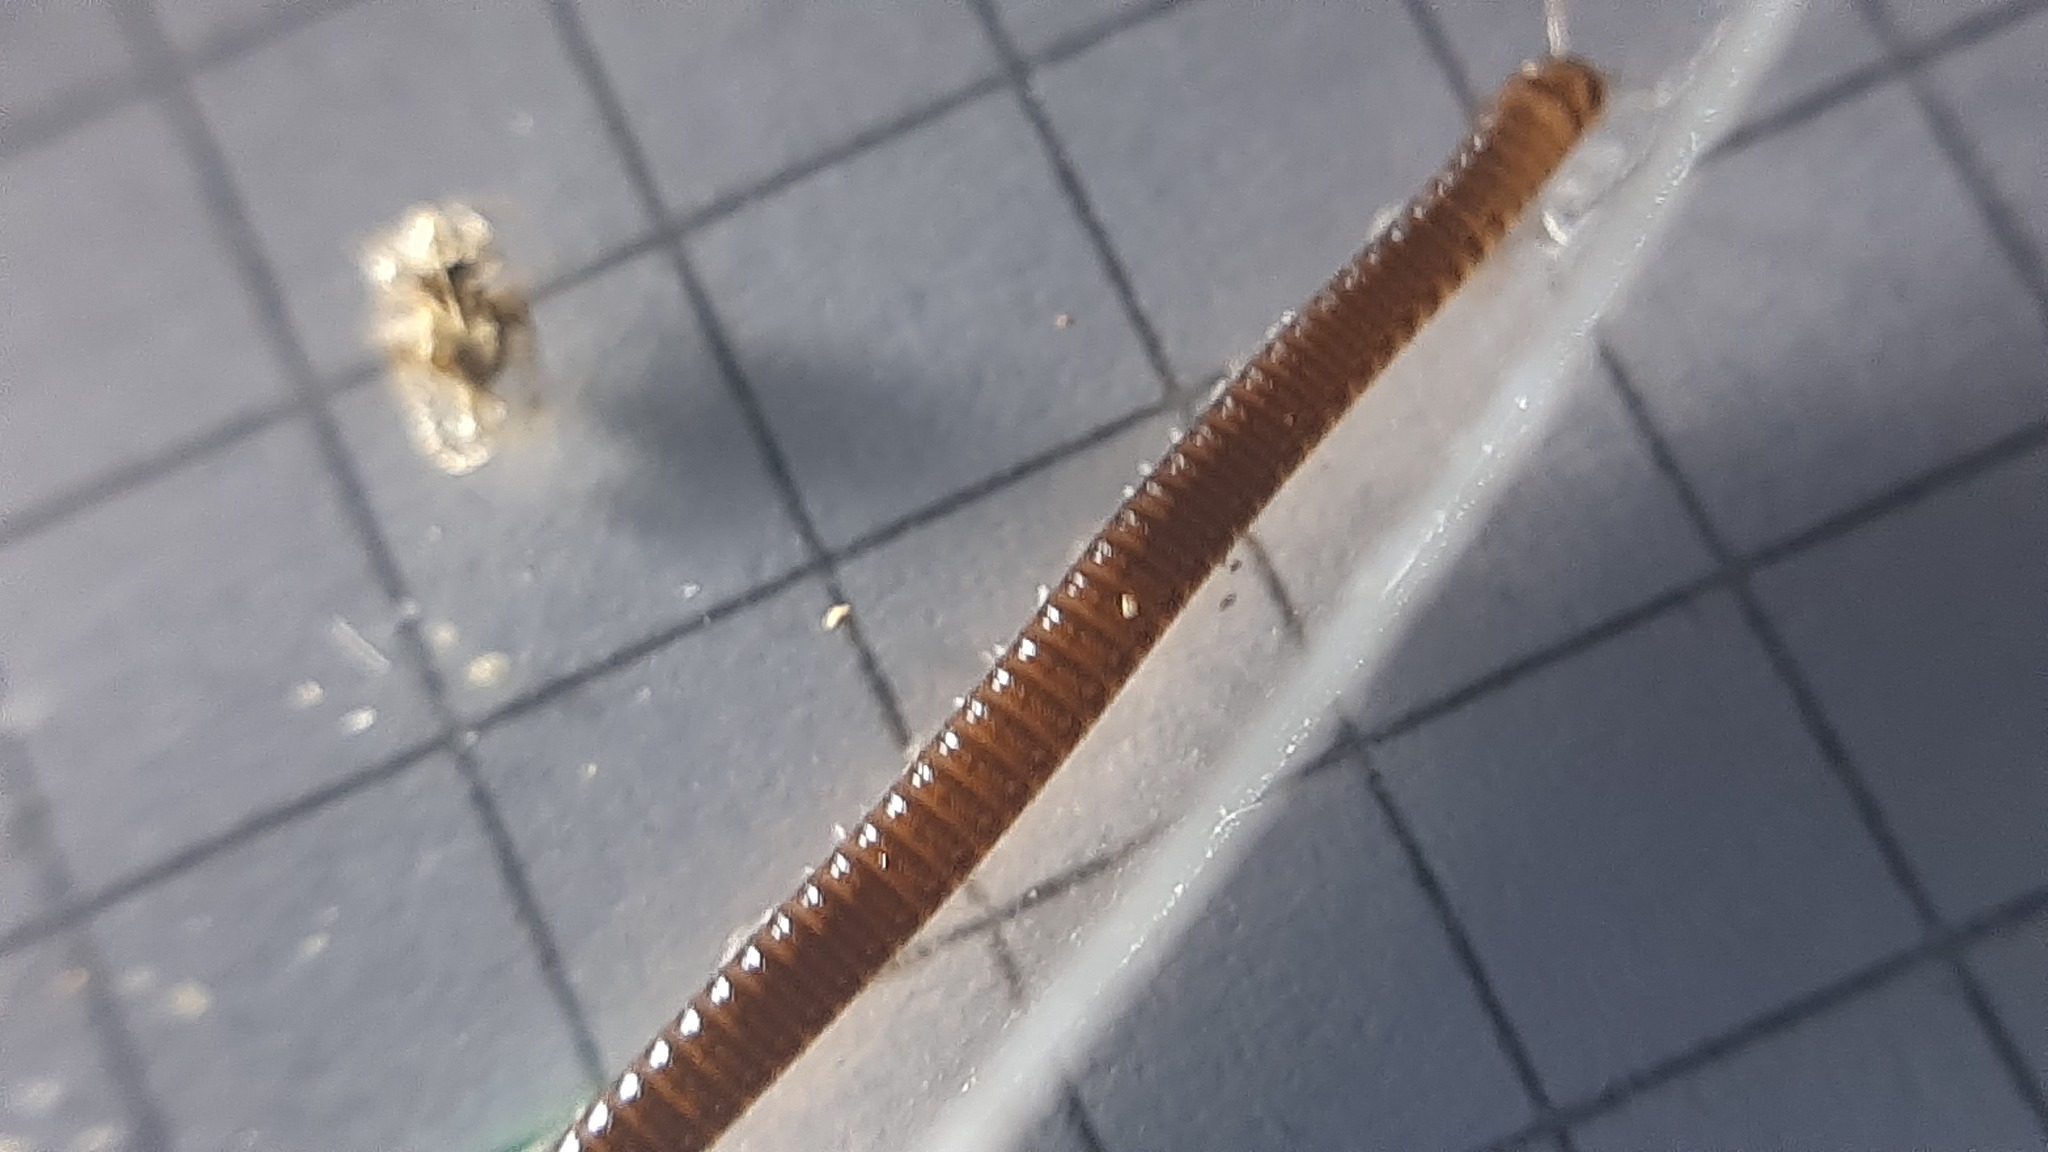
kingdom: Animalia
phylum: Arthropoda
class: Diplopoda
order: Julida
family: Julidae
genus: Cylindroiulus
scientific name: Cylindroiulus latzeli
